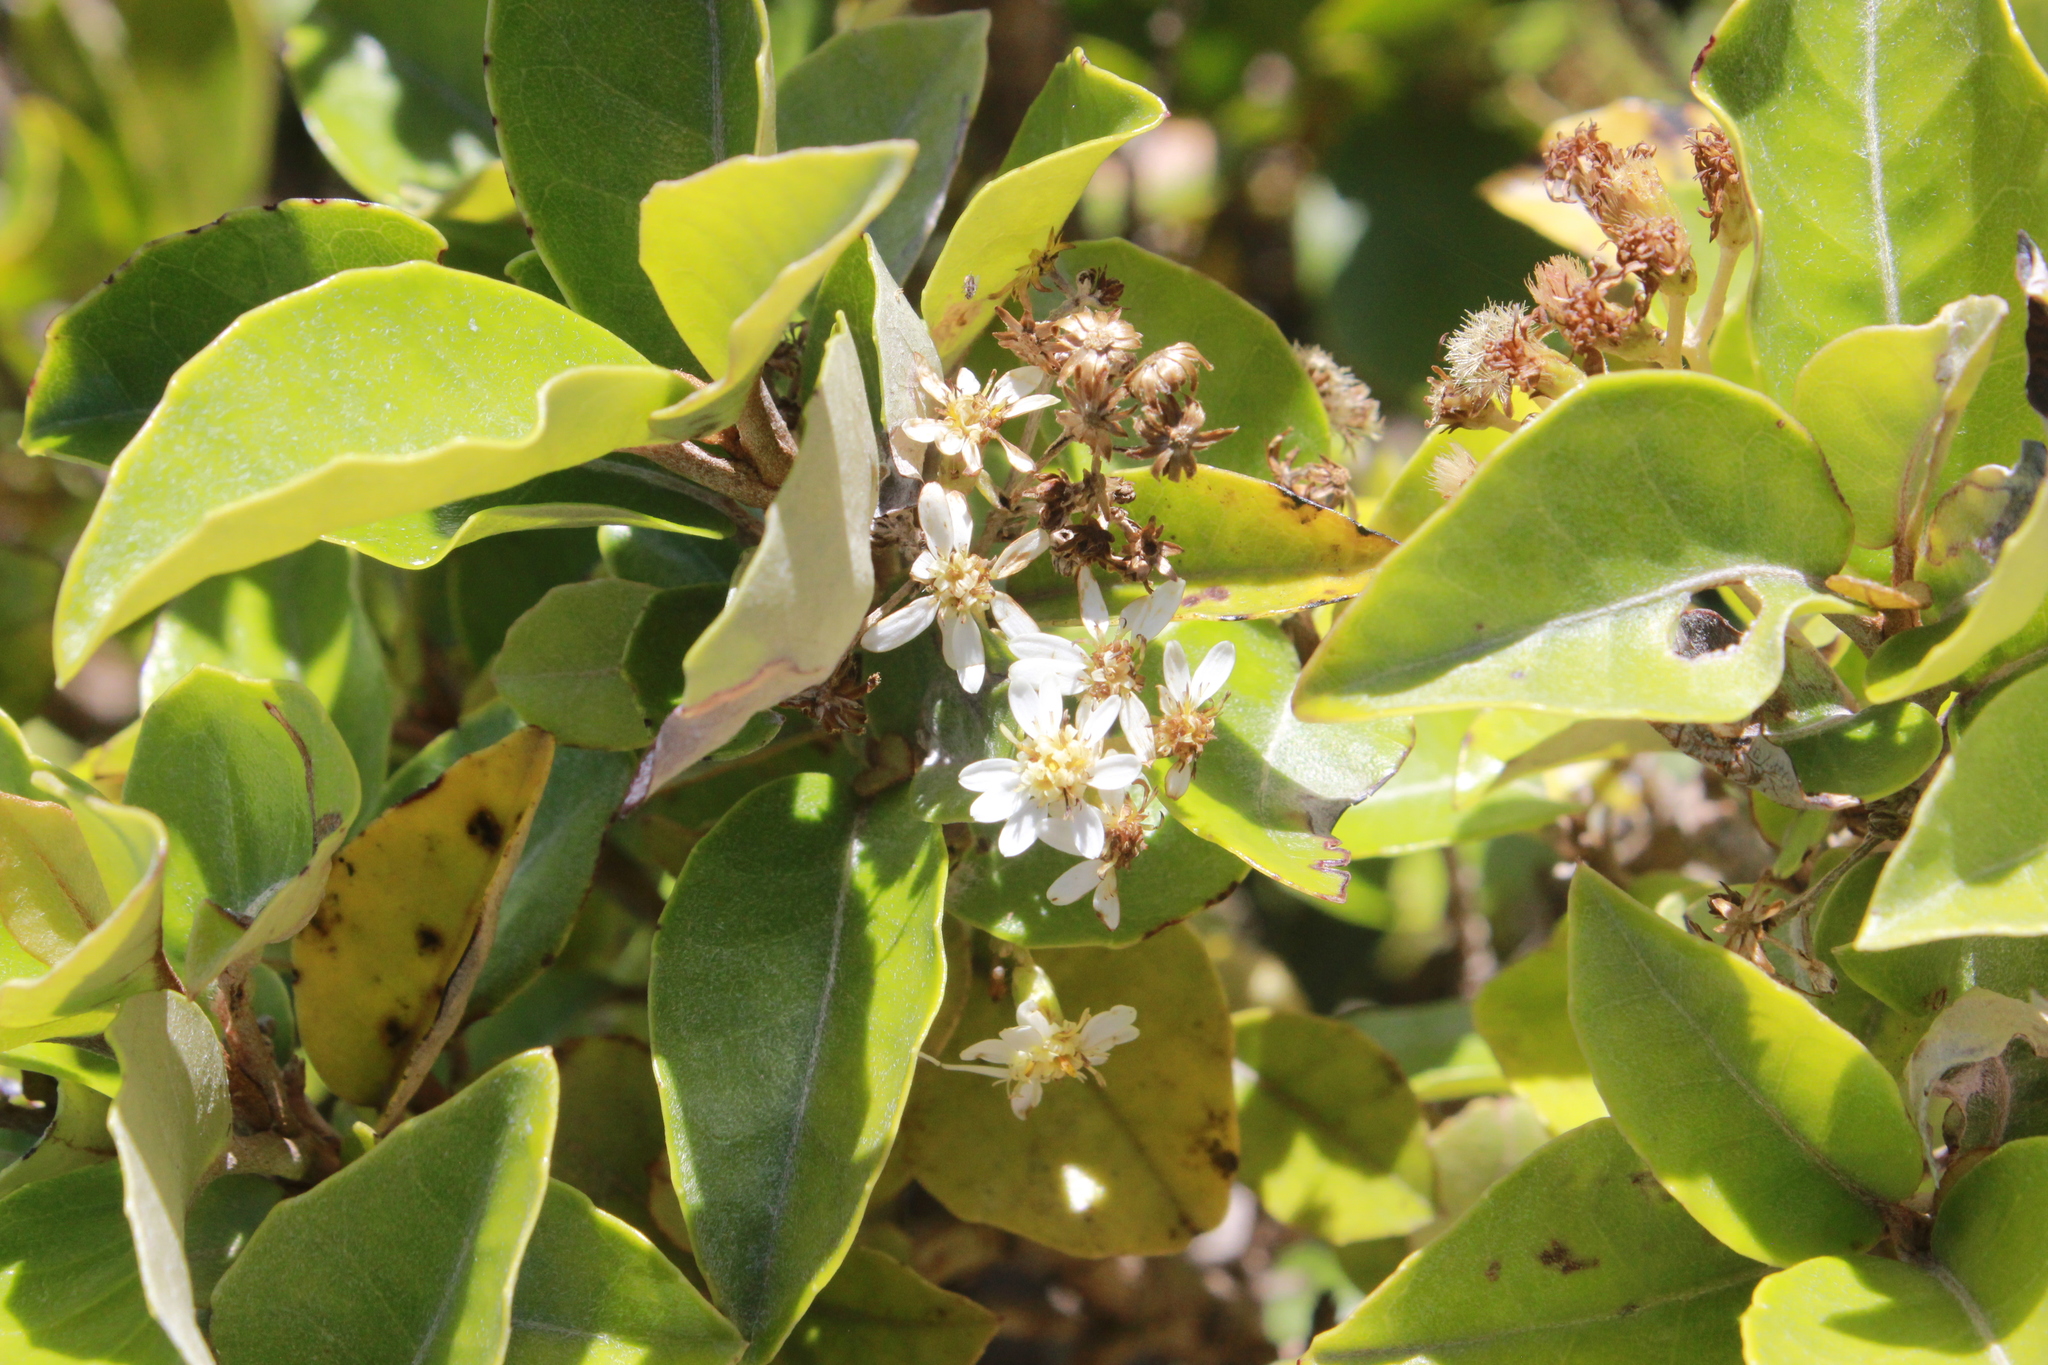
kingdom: Plantae
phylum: Tracheophyta
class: Magnoliopsida
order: Asterales
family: Asteraceae
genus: Olearia
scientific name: Olearia arborescens
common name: Glossy tree daisy
